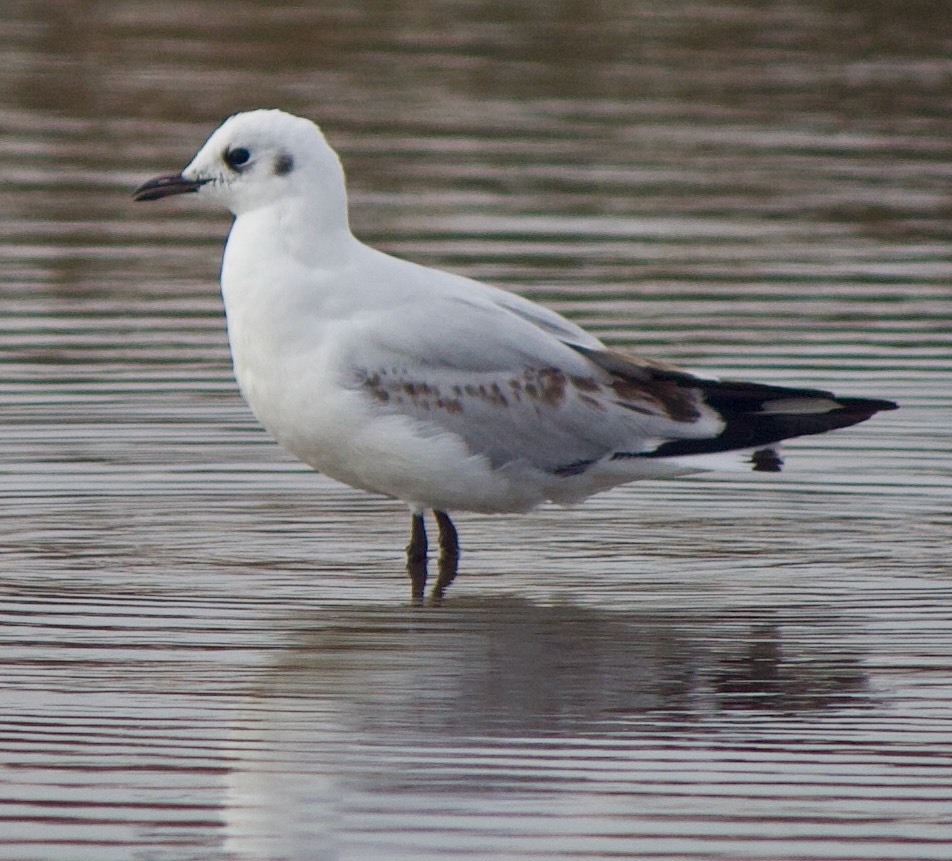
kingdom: Animalia
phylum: Chordata
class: Aves
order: Charadriiformes
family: Laridae
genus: Chroicocephalus
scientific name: Chroicocephalus serranus
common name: Andean gull
